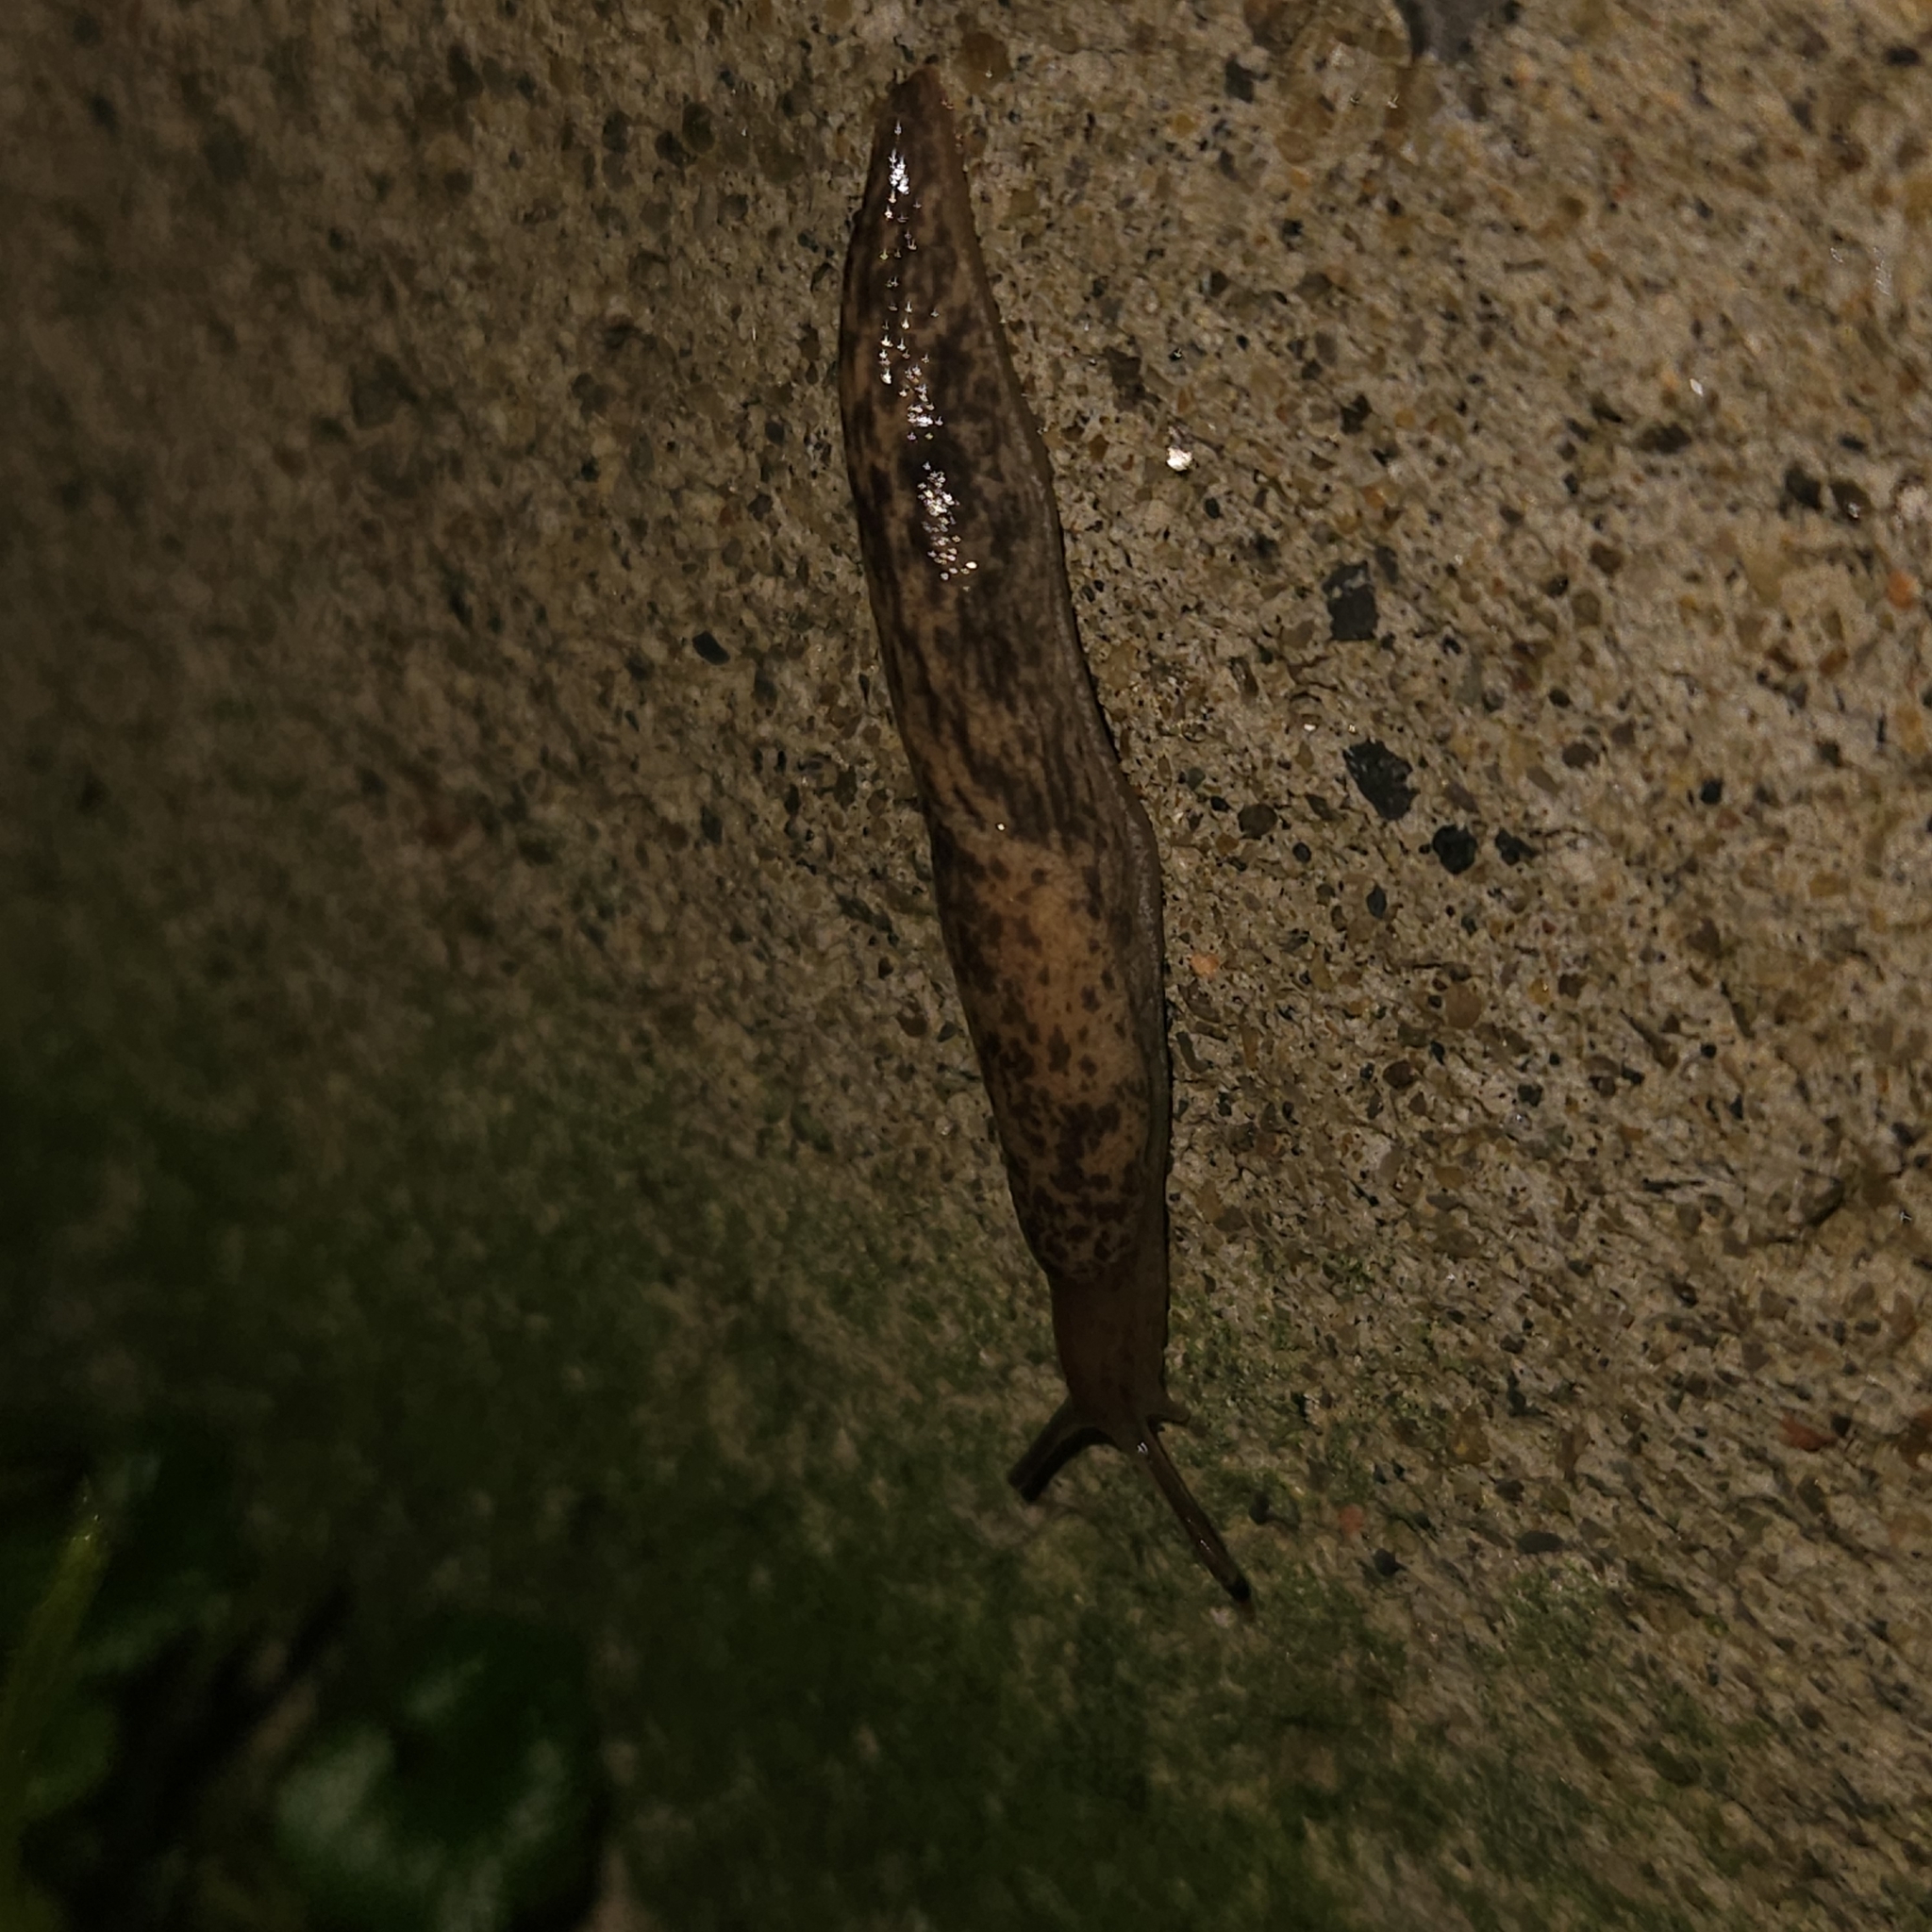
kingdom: Animalia
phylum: Mollusca
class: Gastropoda
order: Stylommatophora
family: Agriolimacidae
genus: Deroceras
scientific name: Deroceras reticulatum
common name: Gray field slug
